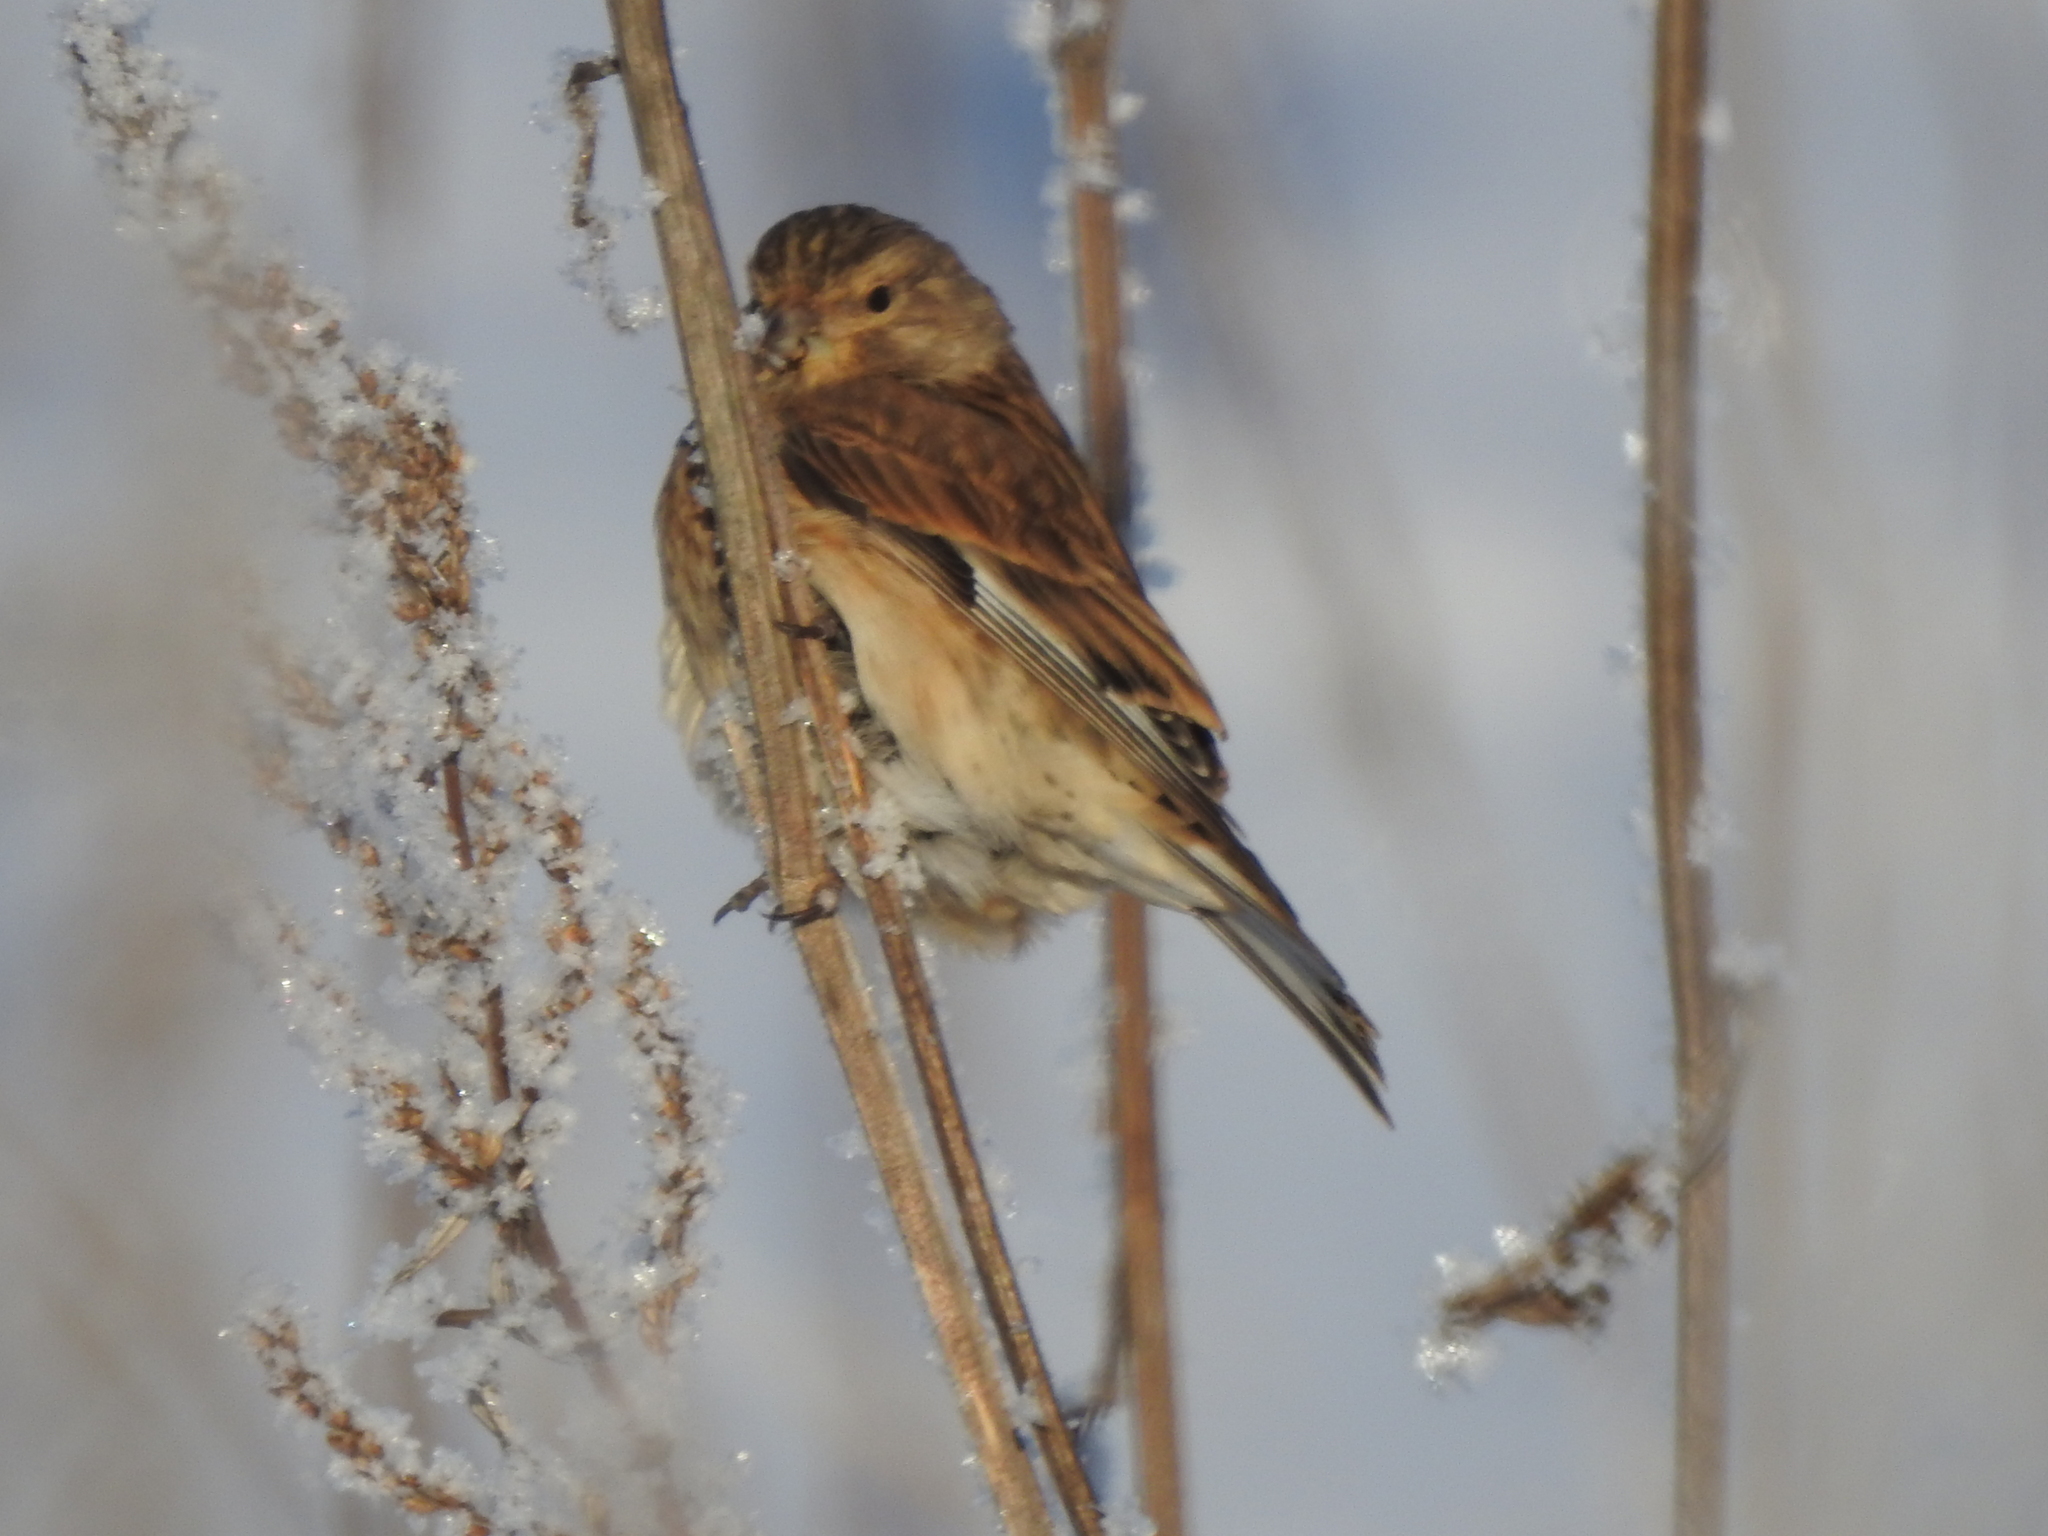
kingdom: Animalia
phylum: Chordata
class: Aves
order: Passeriformes
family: Fringillidae
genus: Linaria
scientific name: Linaria cannabina
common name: Common linnet
